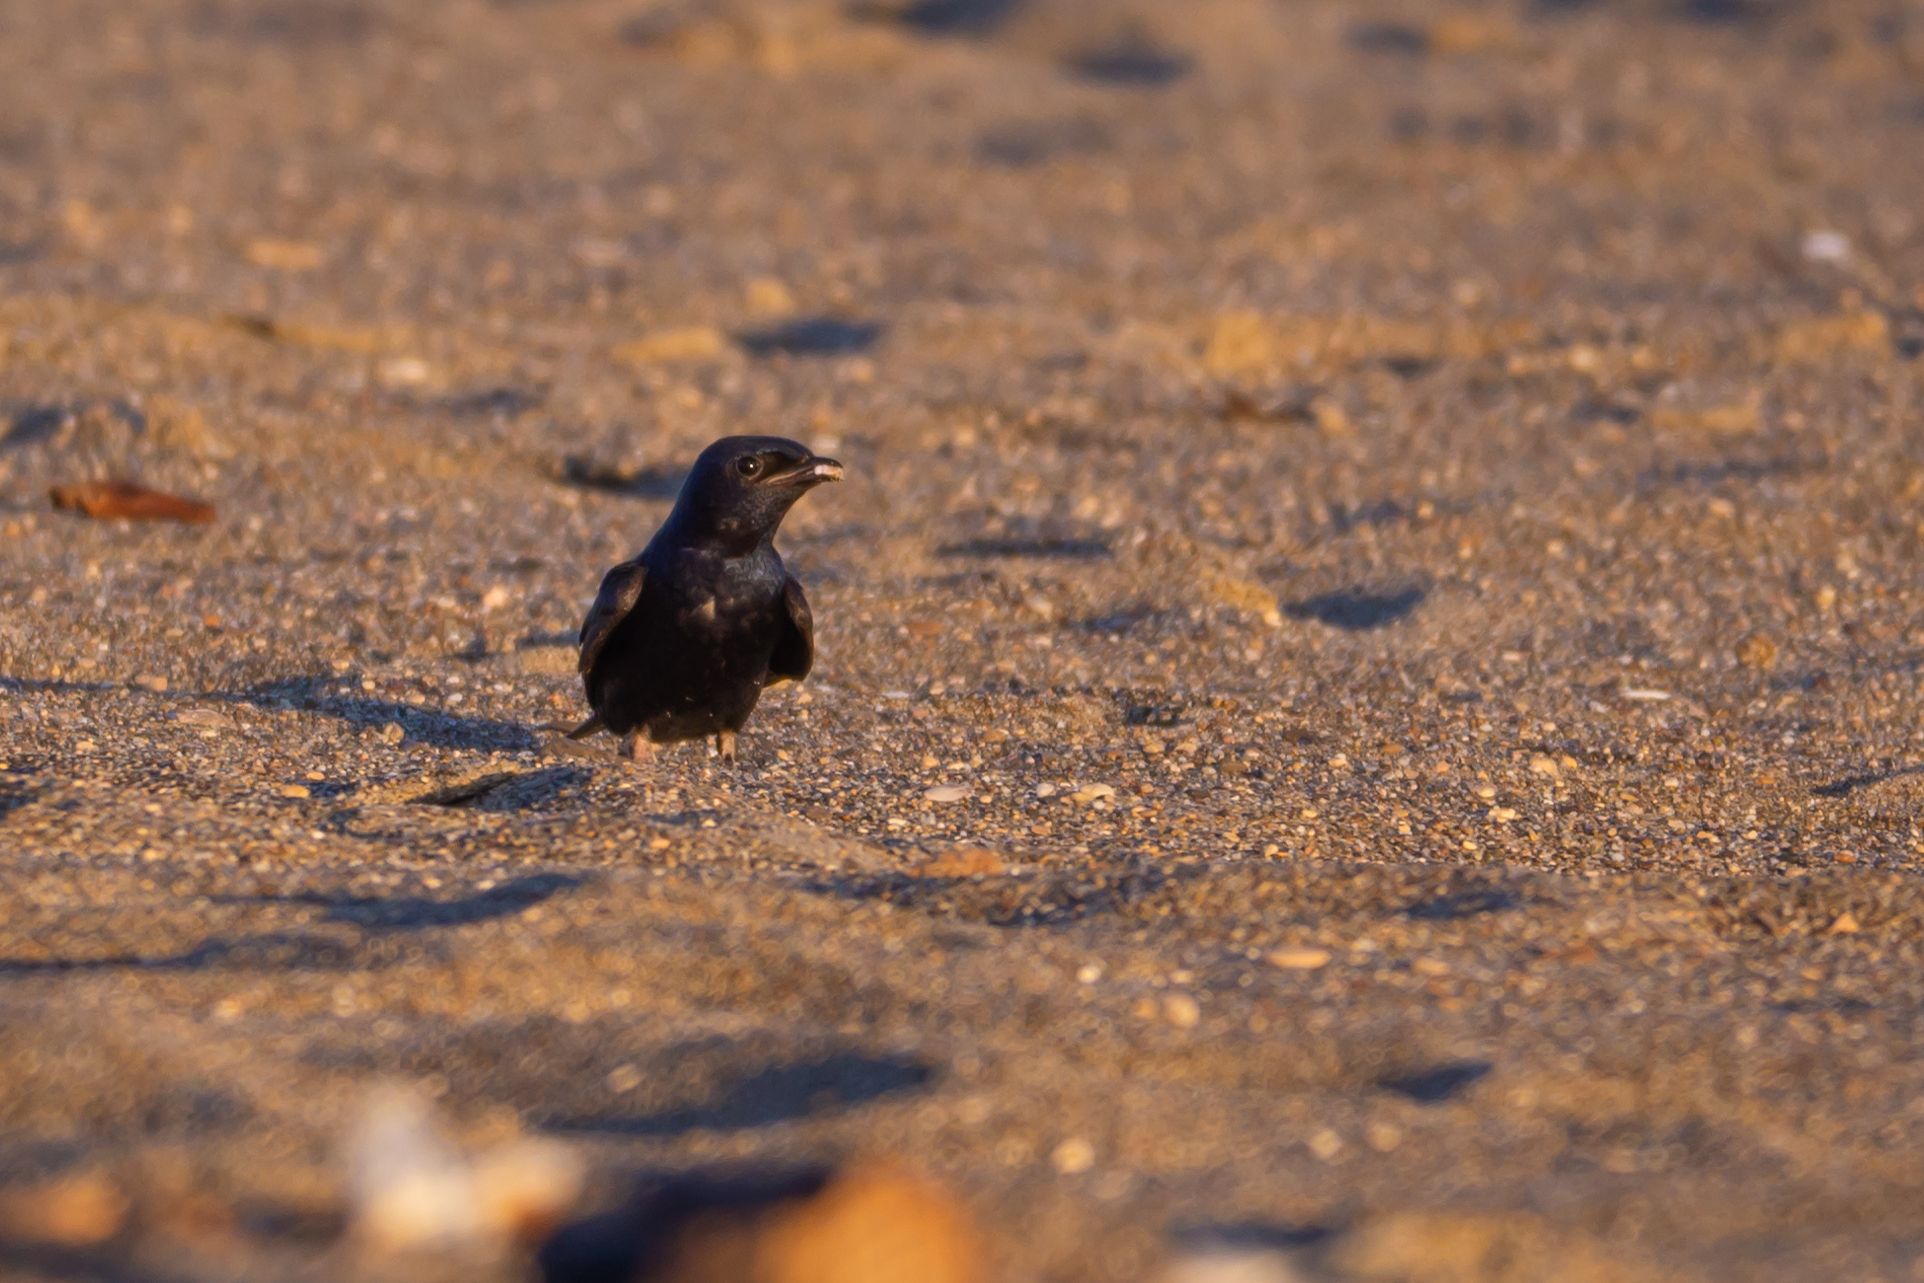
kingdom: Animalia
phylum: Chordata
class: Aves
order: Passeriformes
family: Hirundinidae
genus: Progne
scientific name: Progne subis
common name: Purple martin
